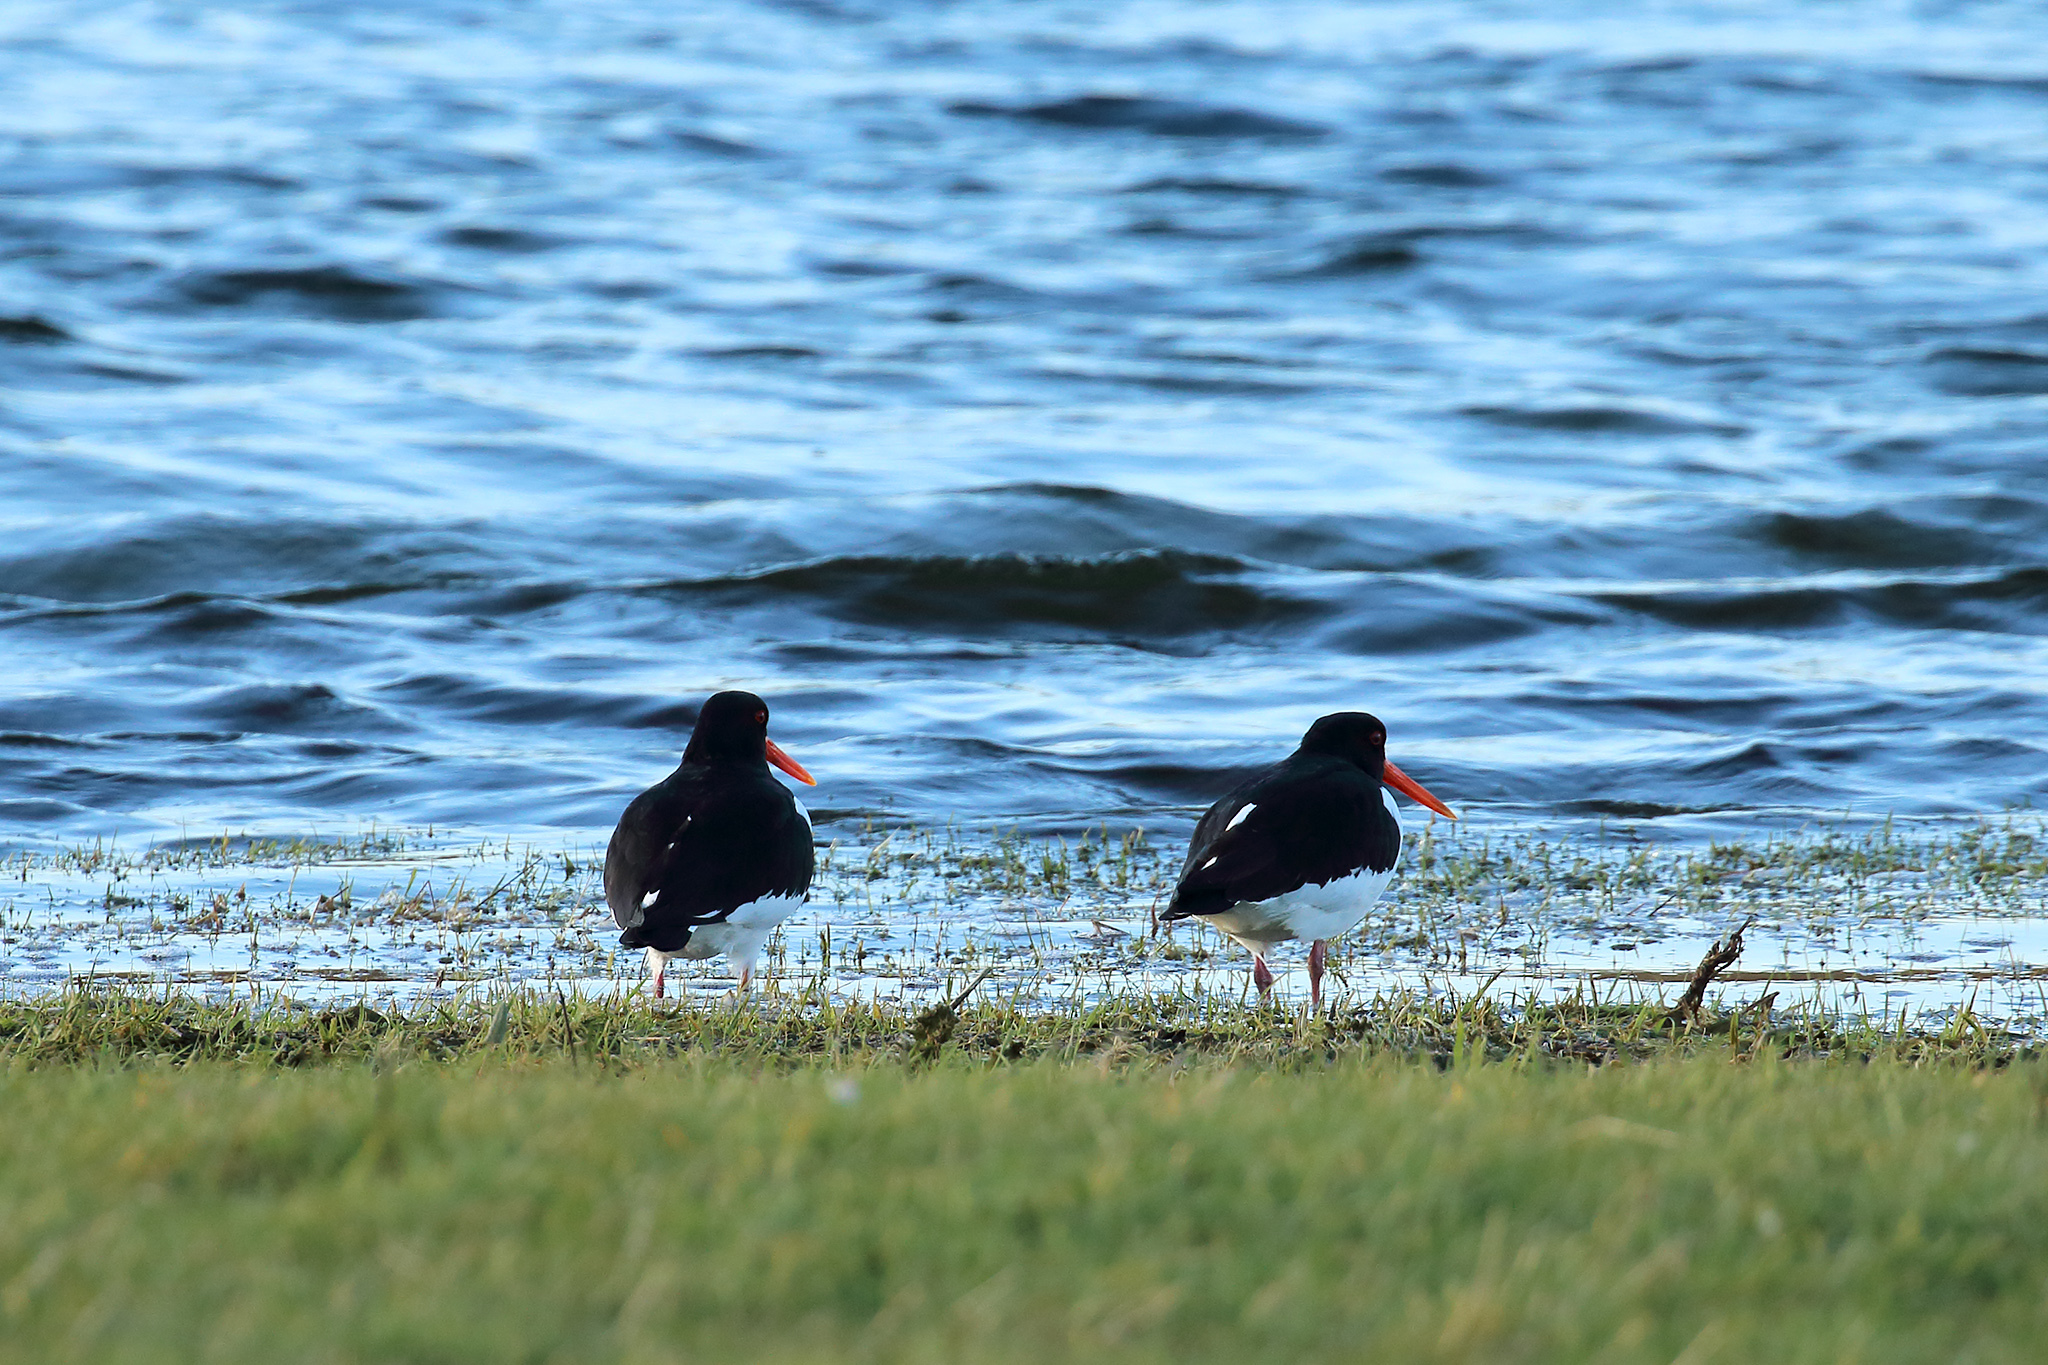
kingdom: Animalia
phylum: Chordata
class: Aves
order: Charadriiformes
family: Haematopodidae
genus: Haematopus
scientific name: Haematopus ostralegus
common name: Eurasian oystercatcher
